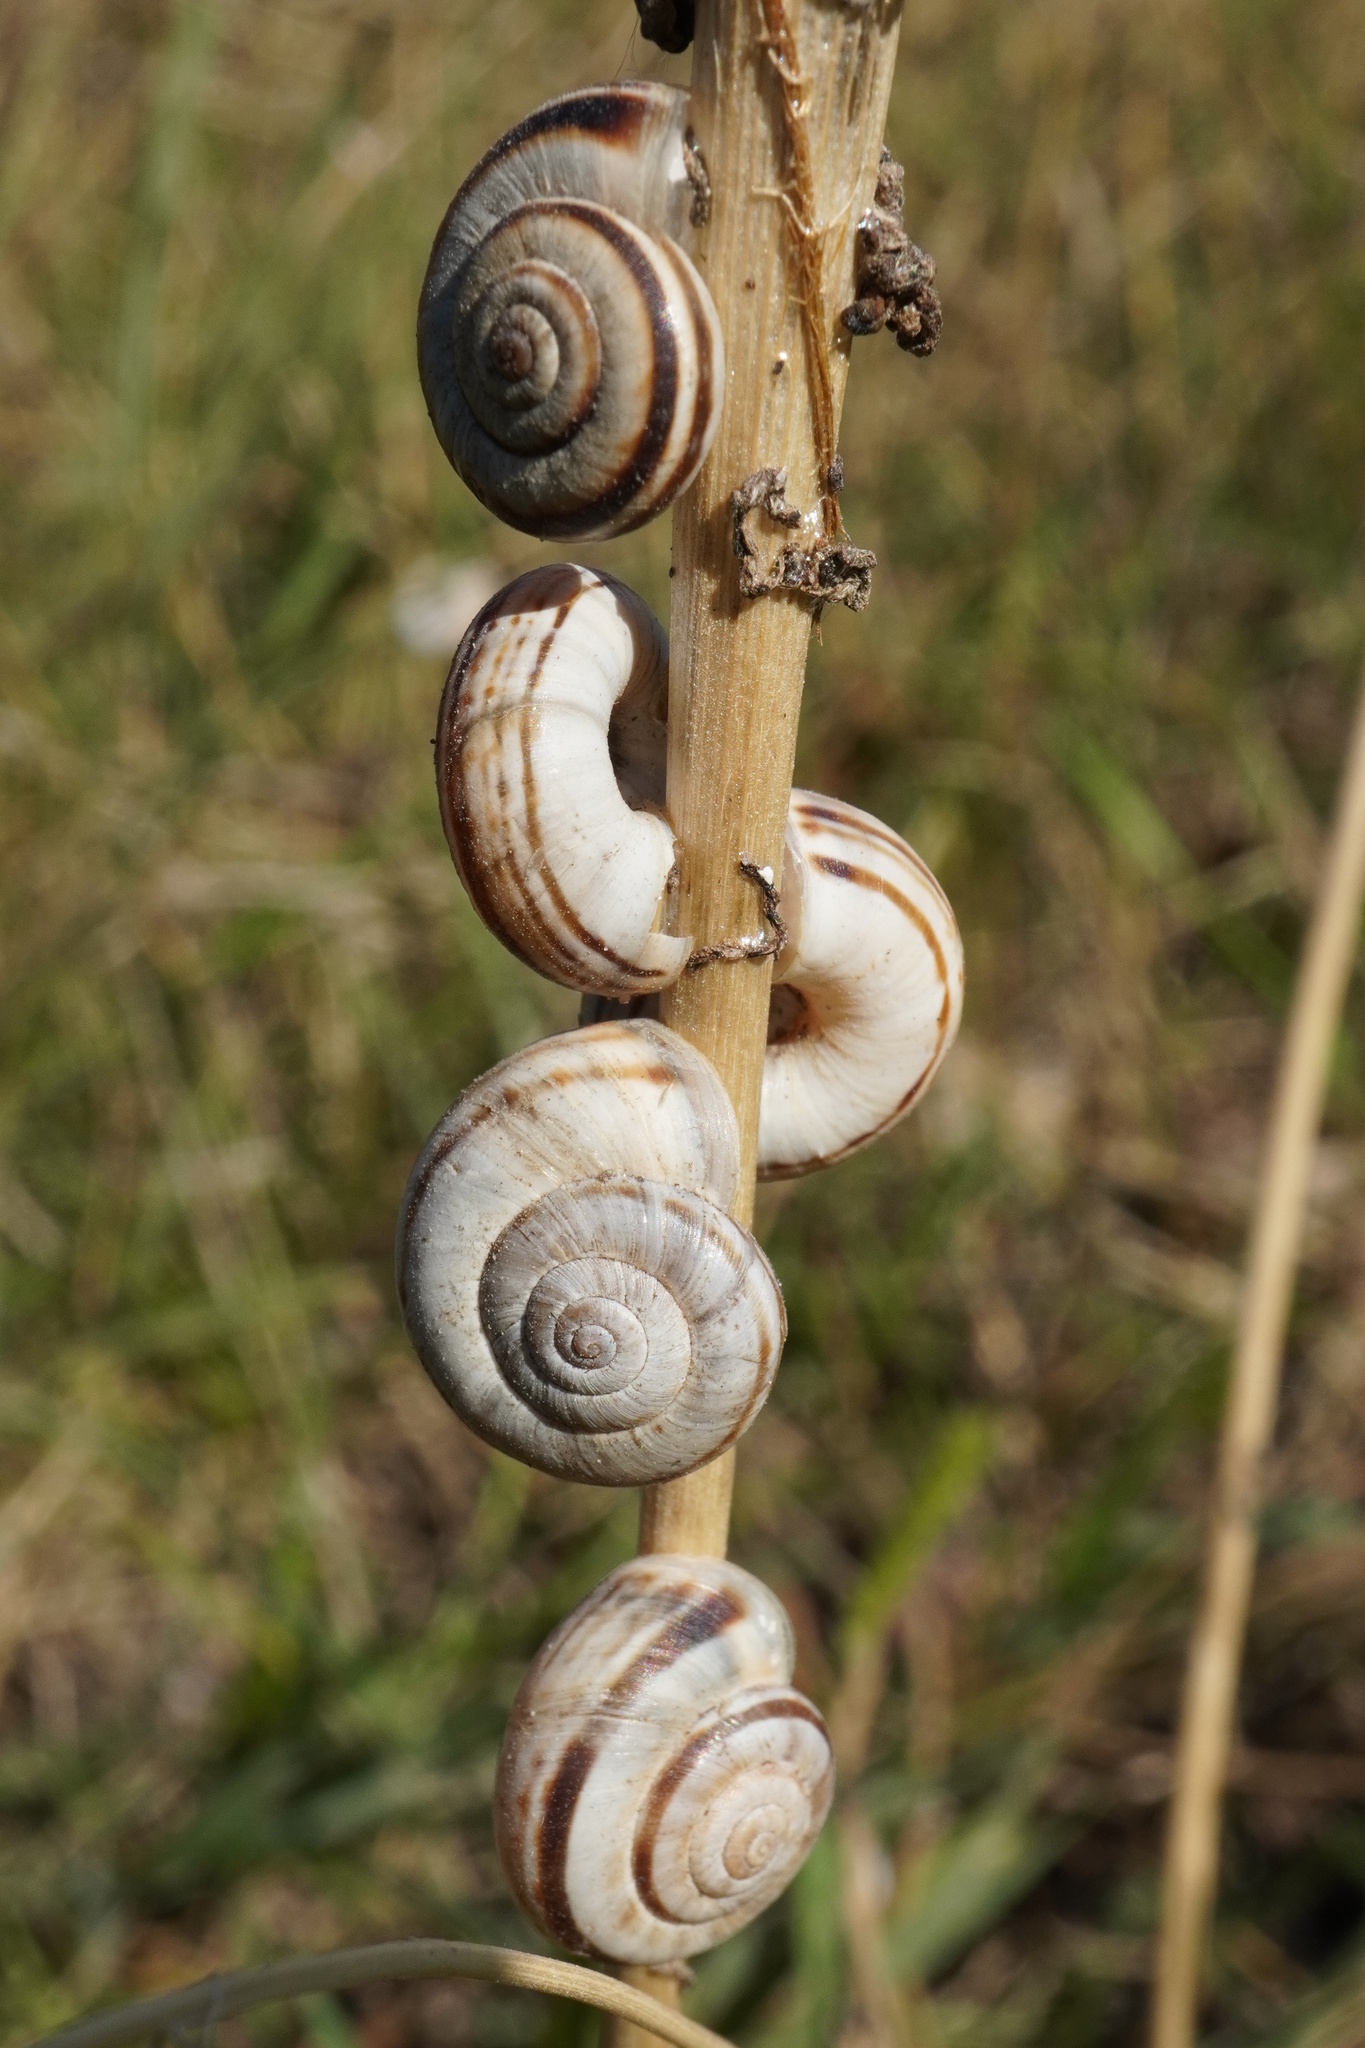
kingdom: Animalia
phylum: Mollusca
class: Gastropoda
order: Stylommatophora
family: Geomitridae
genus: Xerolenta
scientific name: Xerolenta obvia
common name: White heath snail
